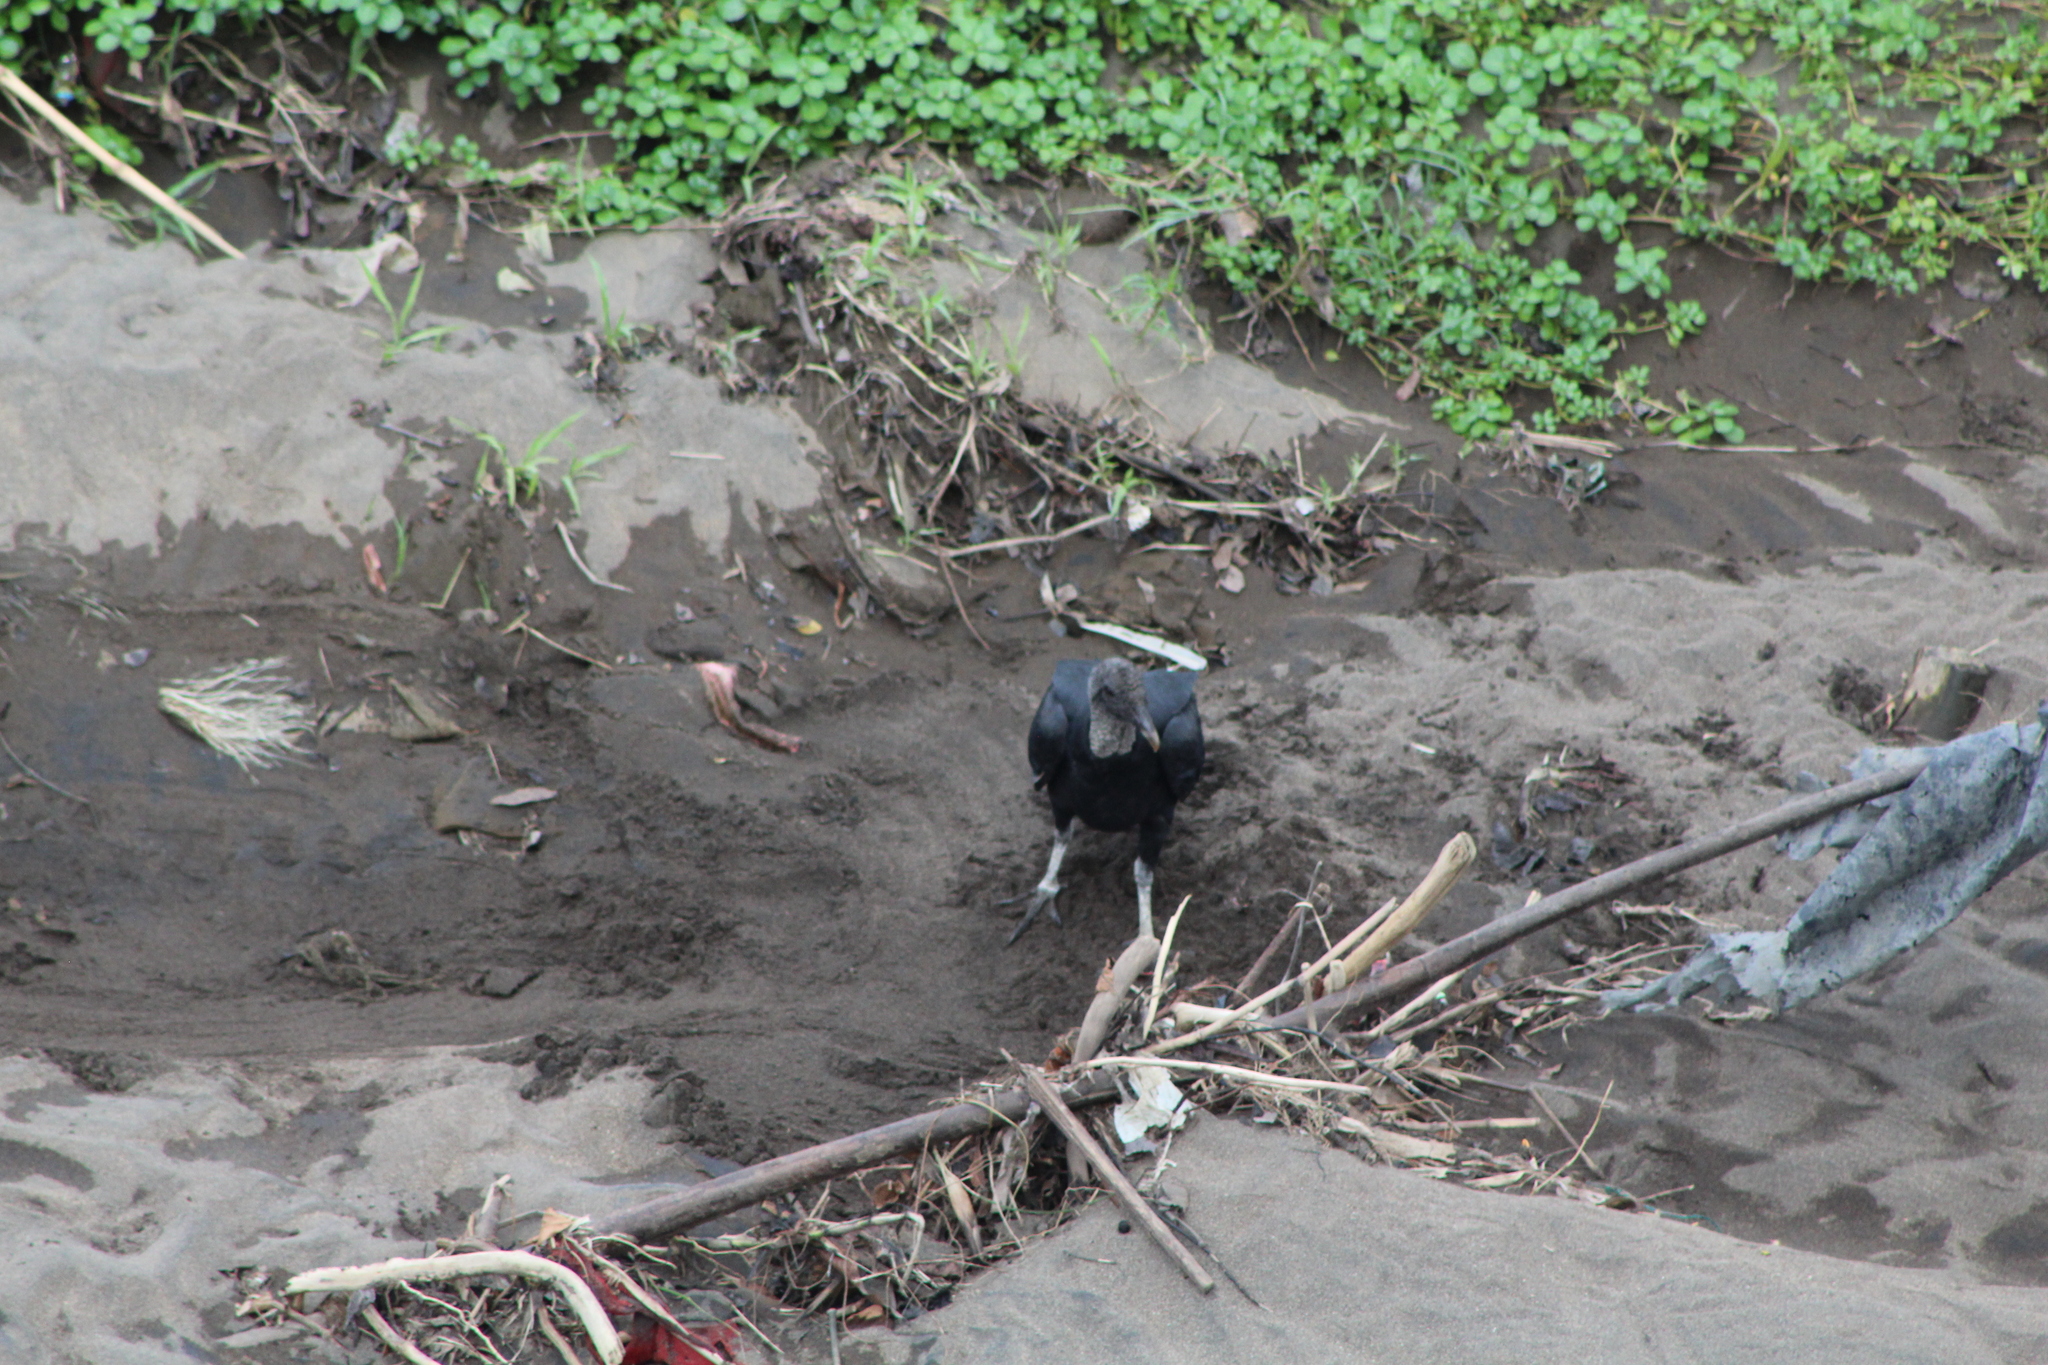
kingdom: Animalia
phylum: Chordata
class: Aves
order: Accipitriformes
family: Cathartidae
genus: Coragyps
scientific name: Coragyps atratus
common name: Black vulture
